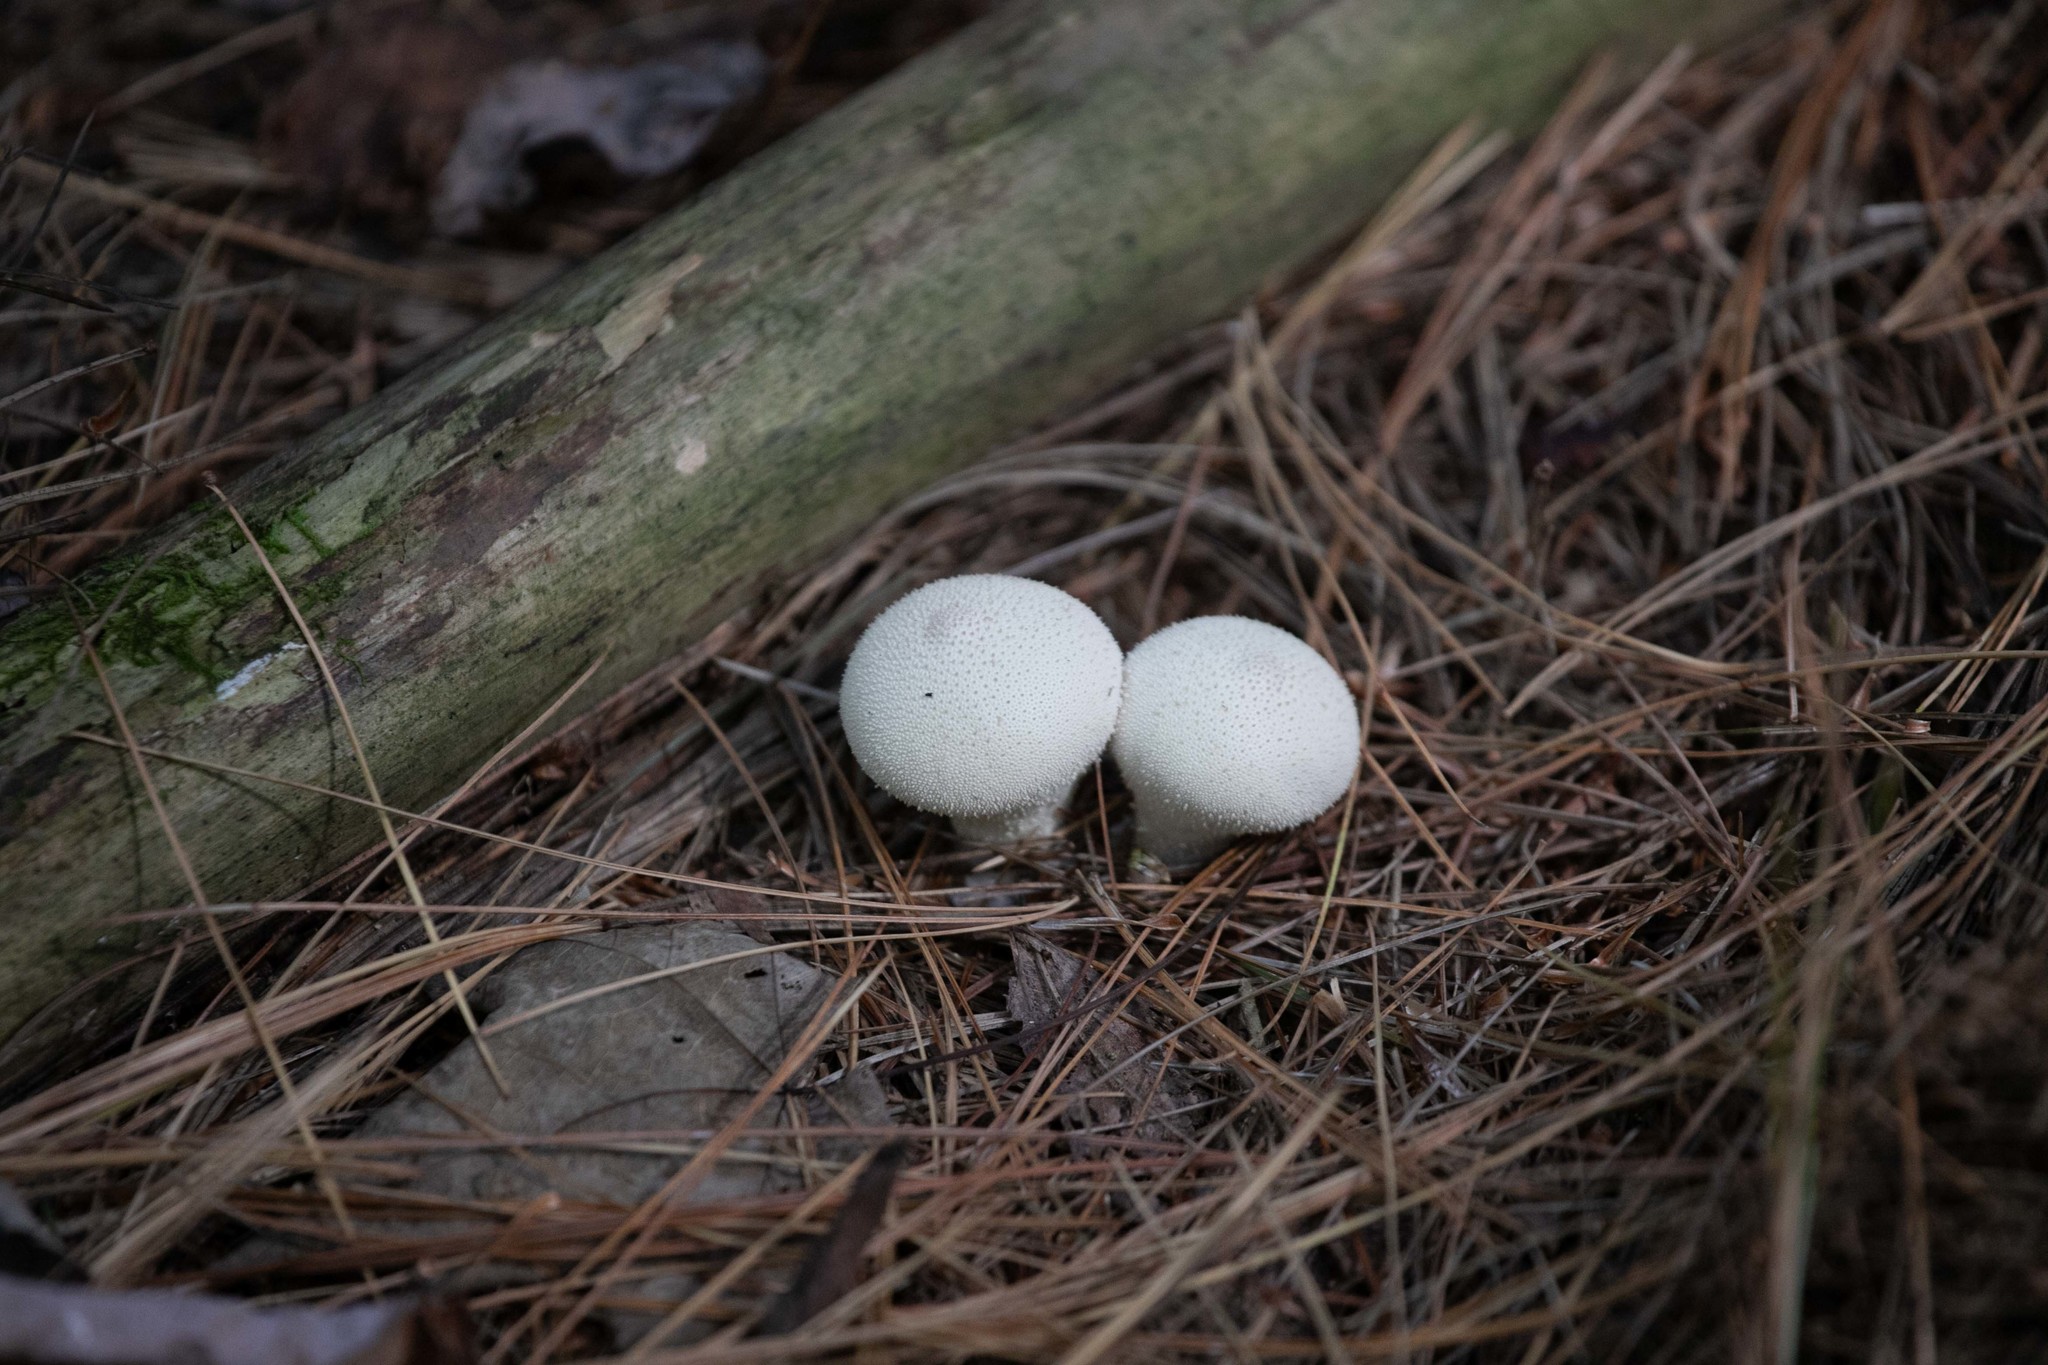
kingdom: Fungi
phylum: Basidiomycota
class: Agaricomycetes
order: Agaricales
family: Lycoperdaceae
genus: Lycoperdon
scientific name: Lycoperdon perlatum
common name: Common puffball
